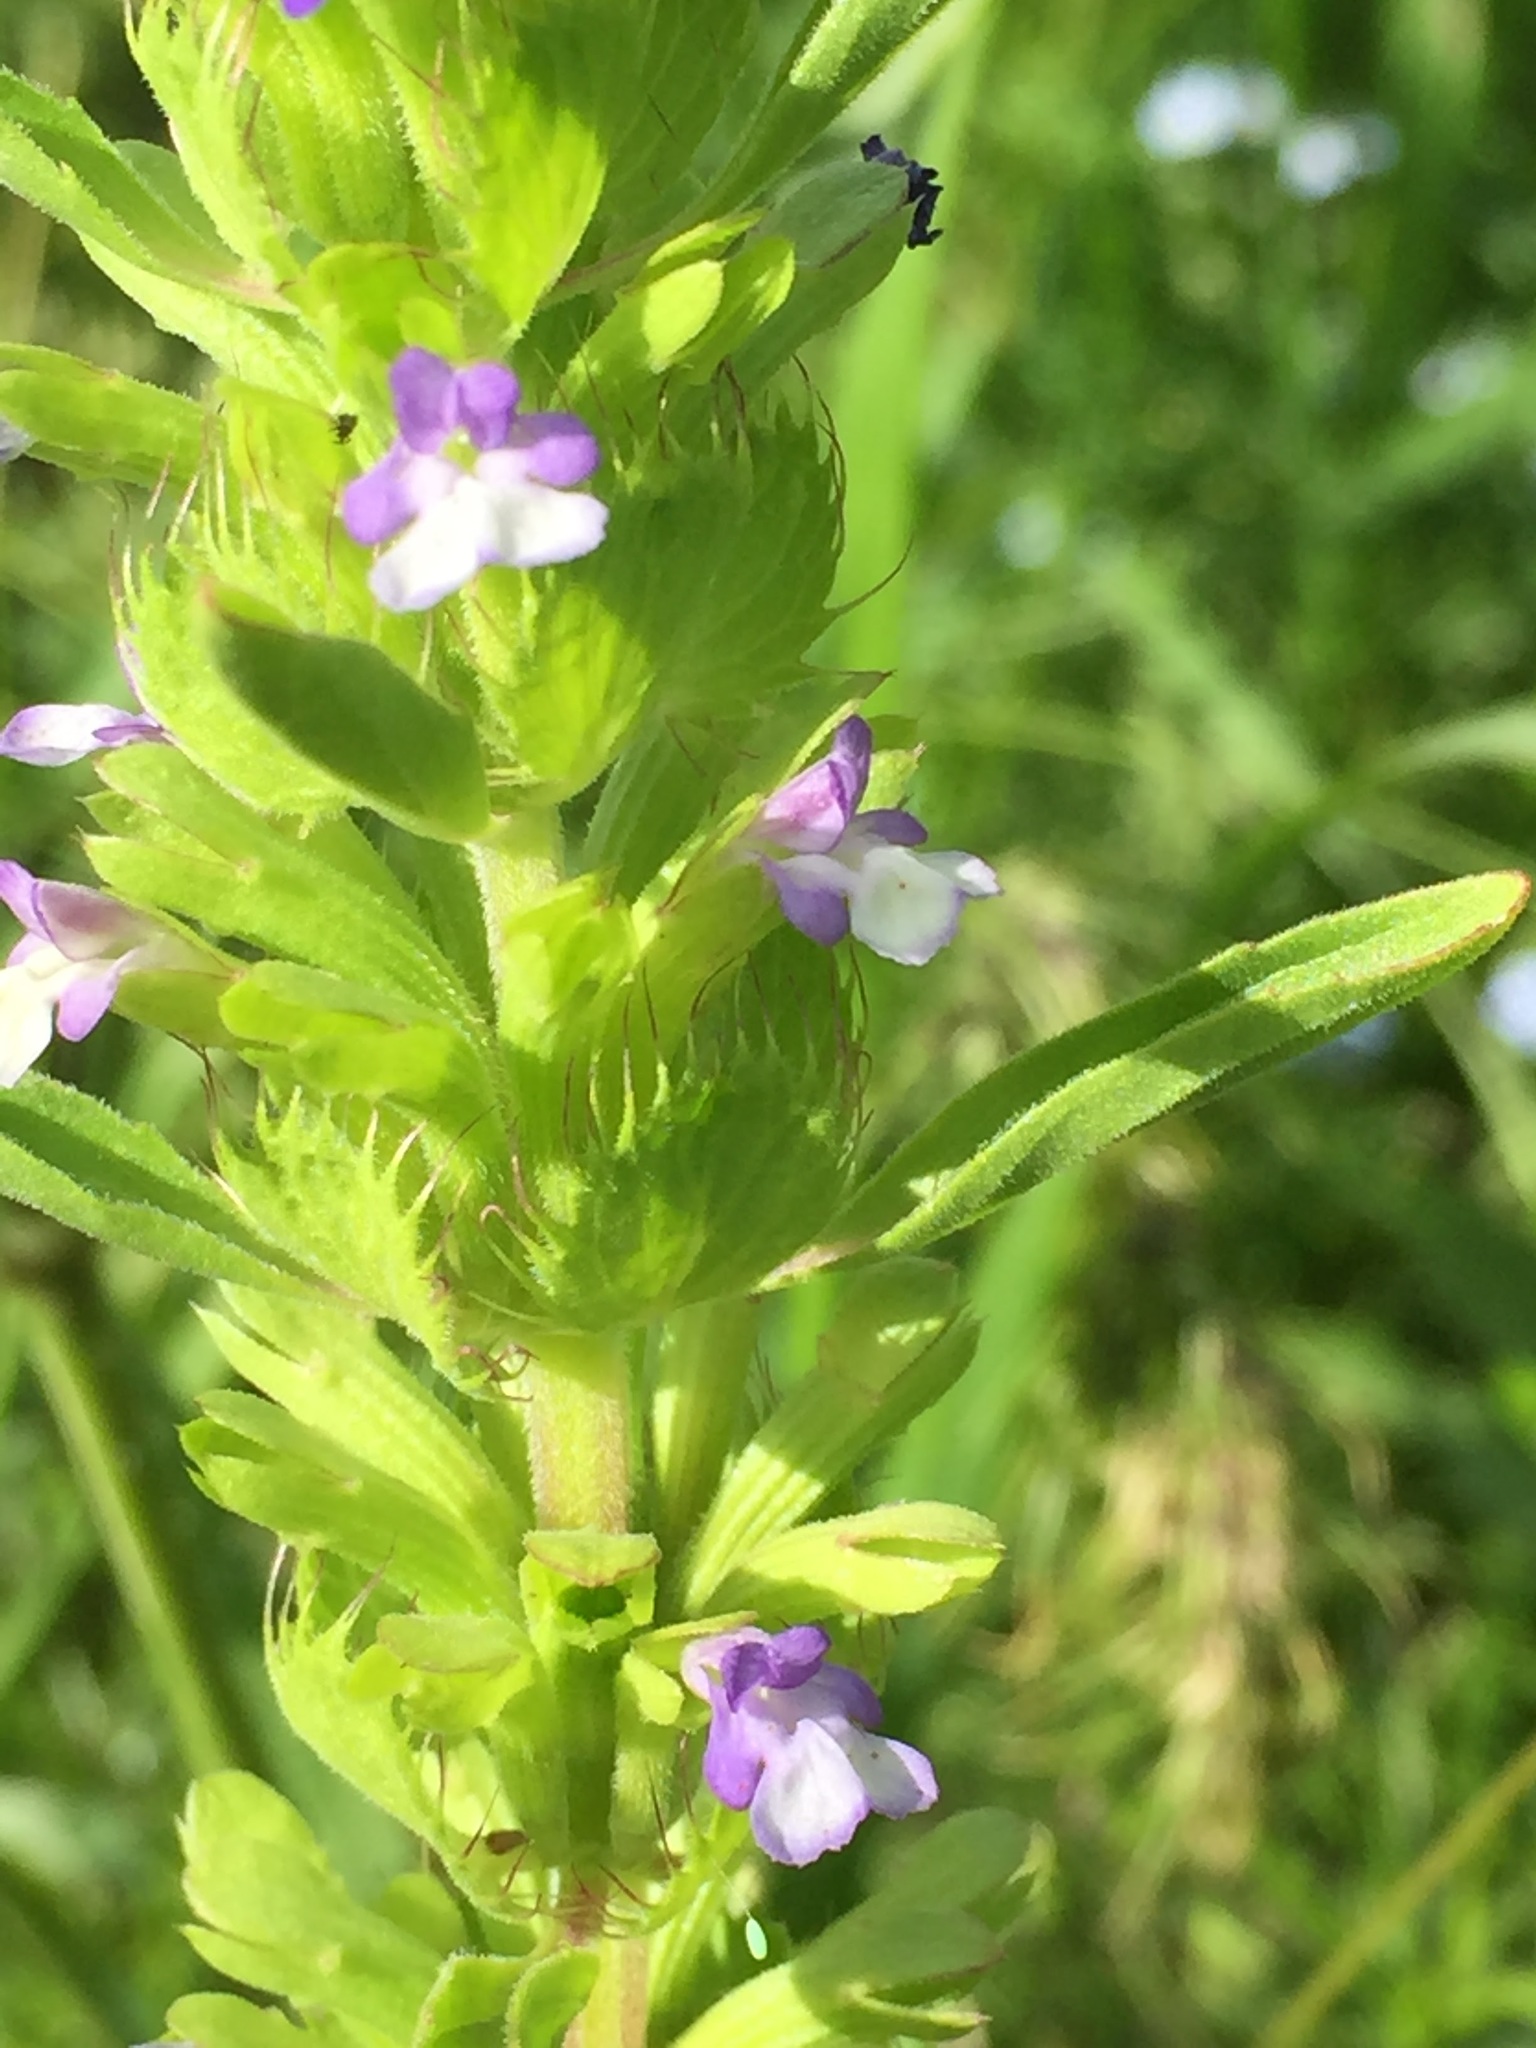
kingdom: Plantae
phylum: Tracheophyta
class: Magnoliopsida
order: Lamiales
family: Lamiaceae
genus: Lallemantia
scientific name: Lallemantia peltata
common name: Lion's heart
